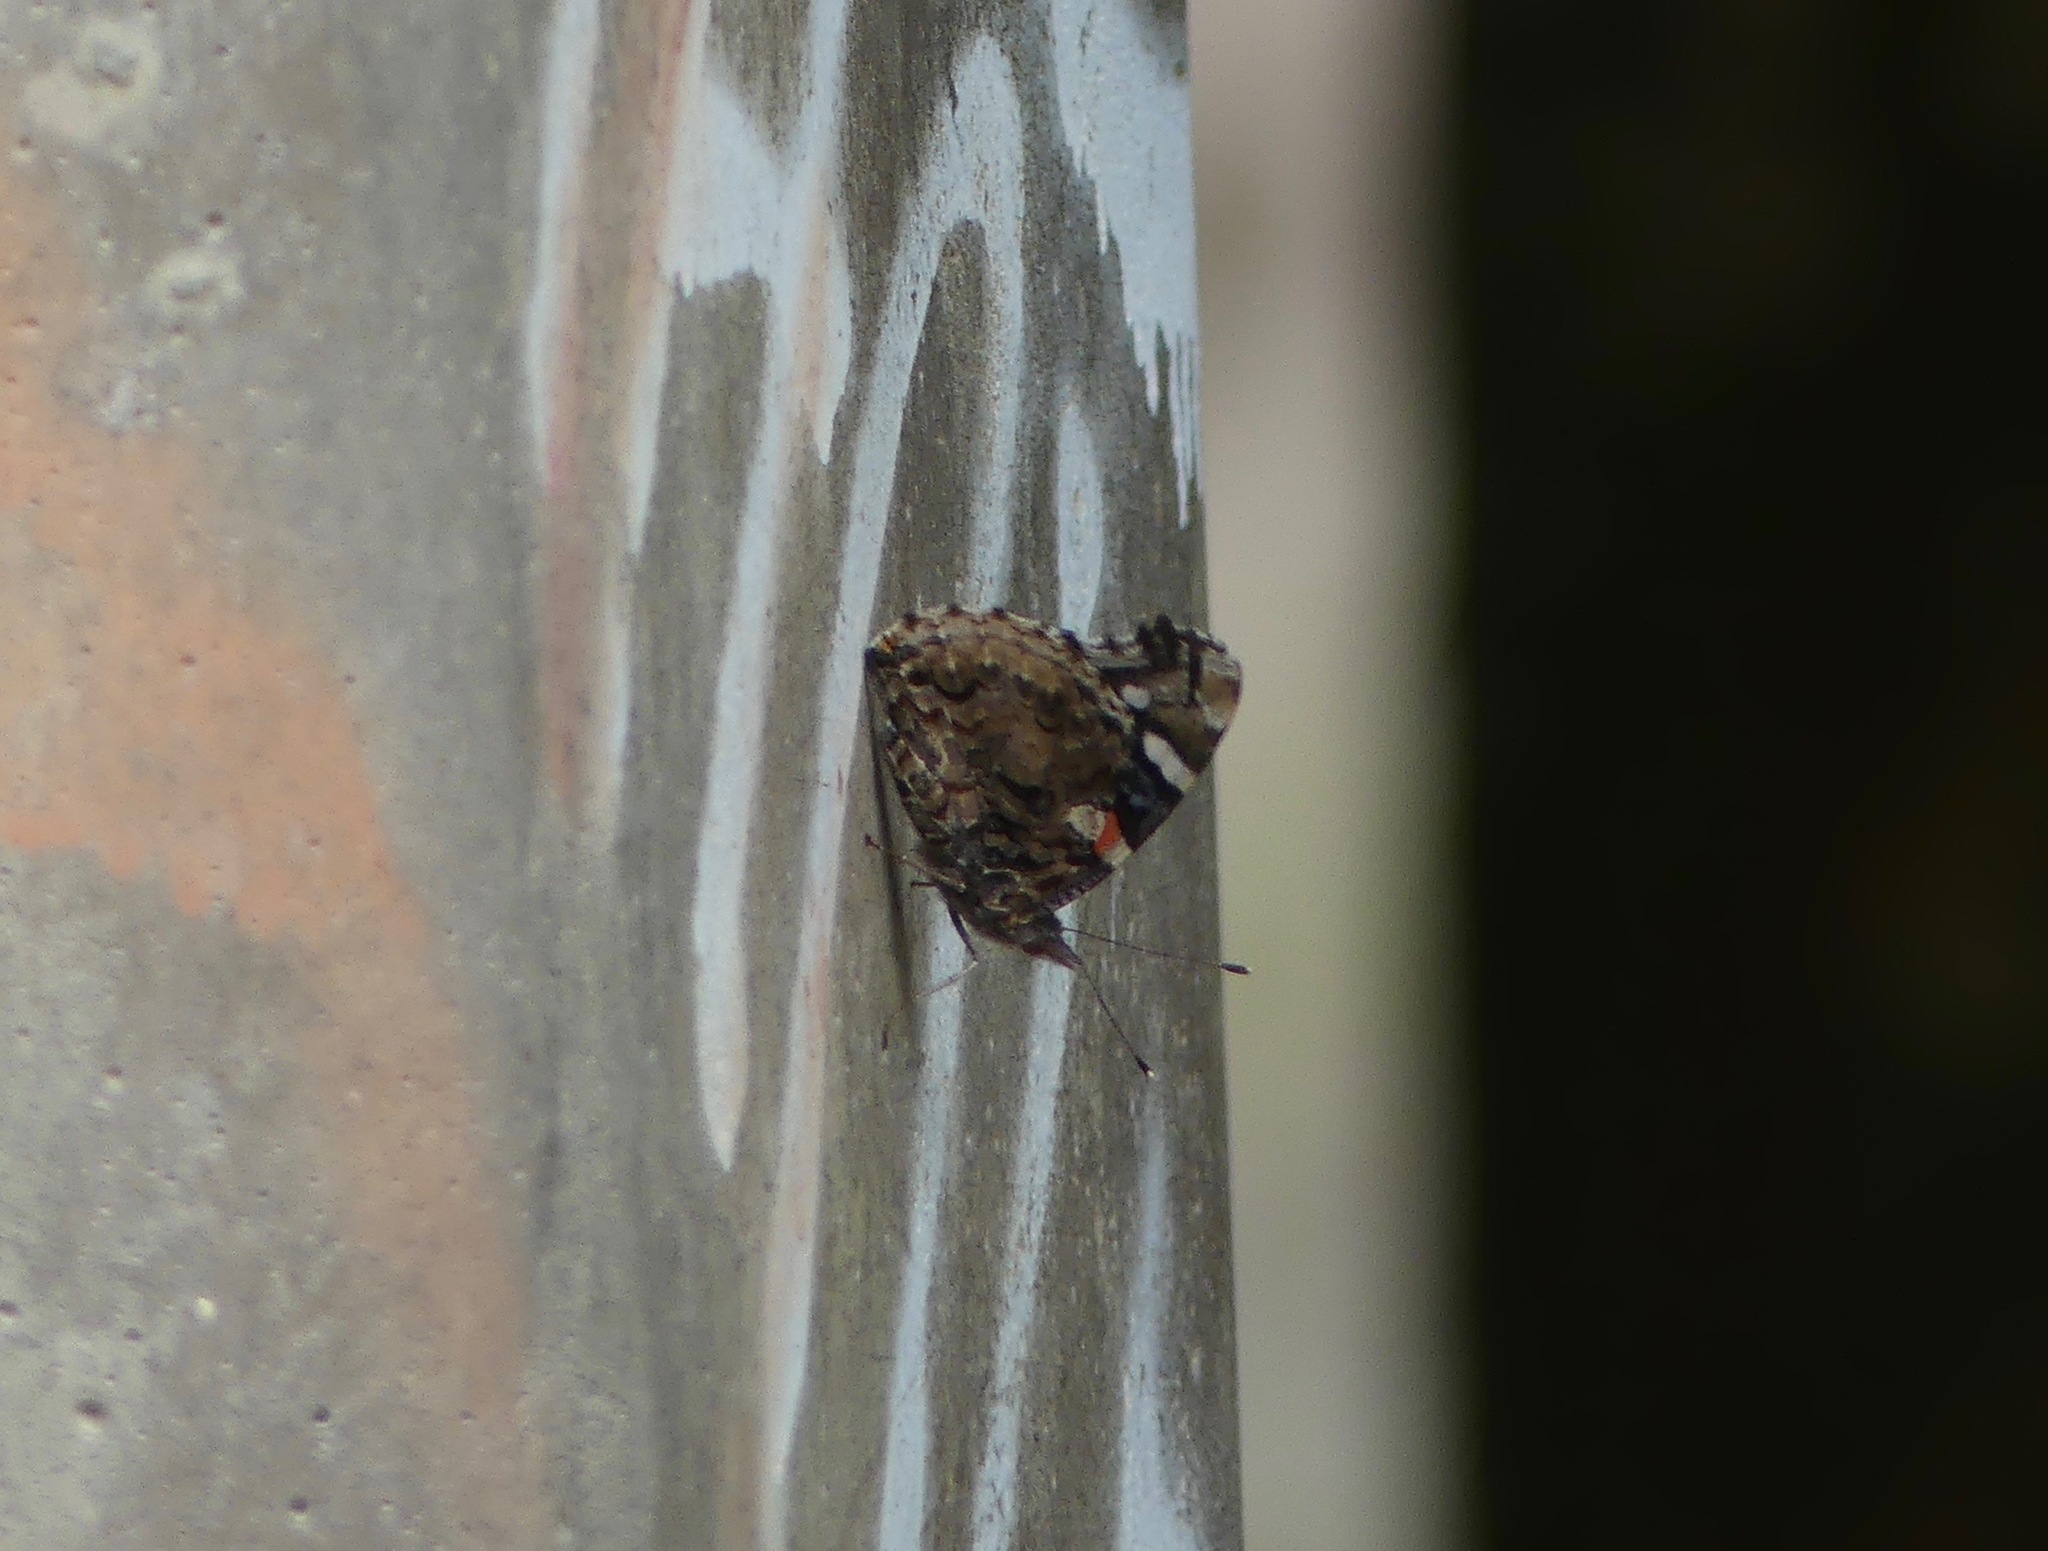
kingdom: Animalia
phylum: Arthropoda
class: Insecta
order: Lepidoptera
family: Nymphalidae
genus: Vanessa
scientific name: Vanessa atalanta
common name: Red admiral
